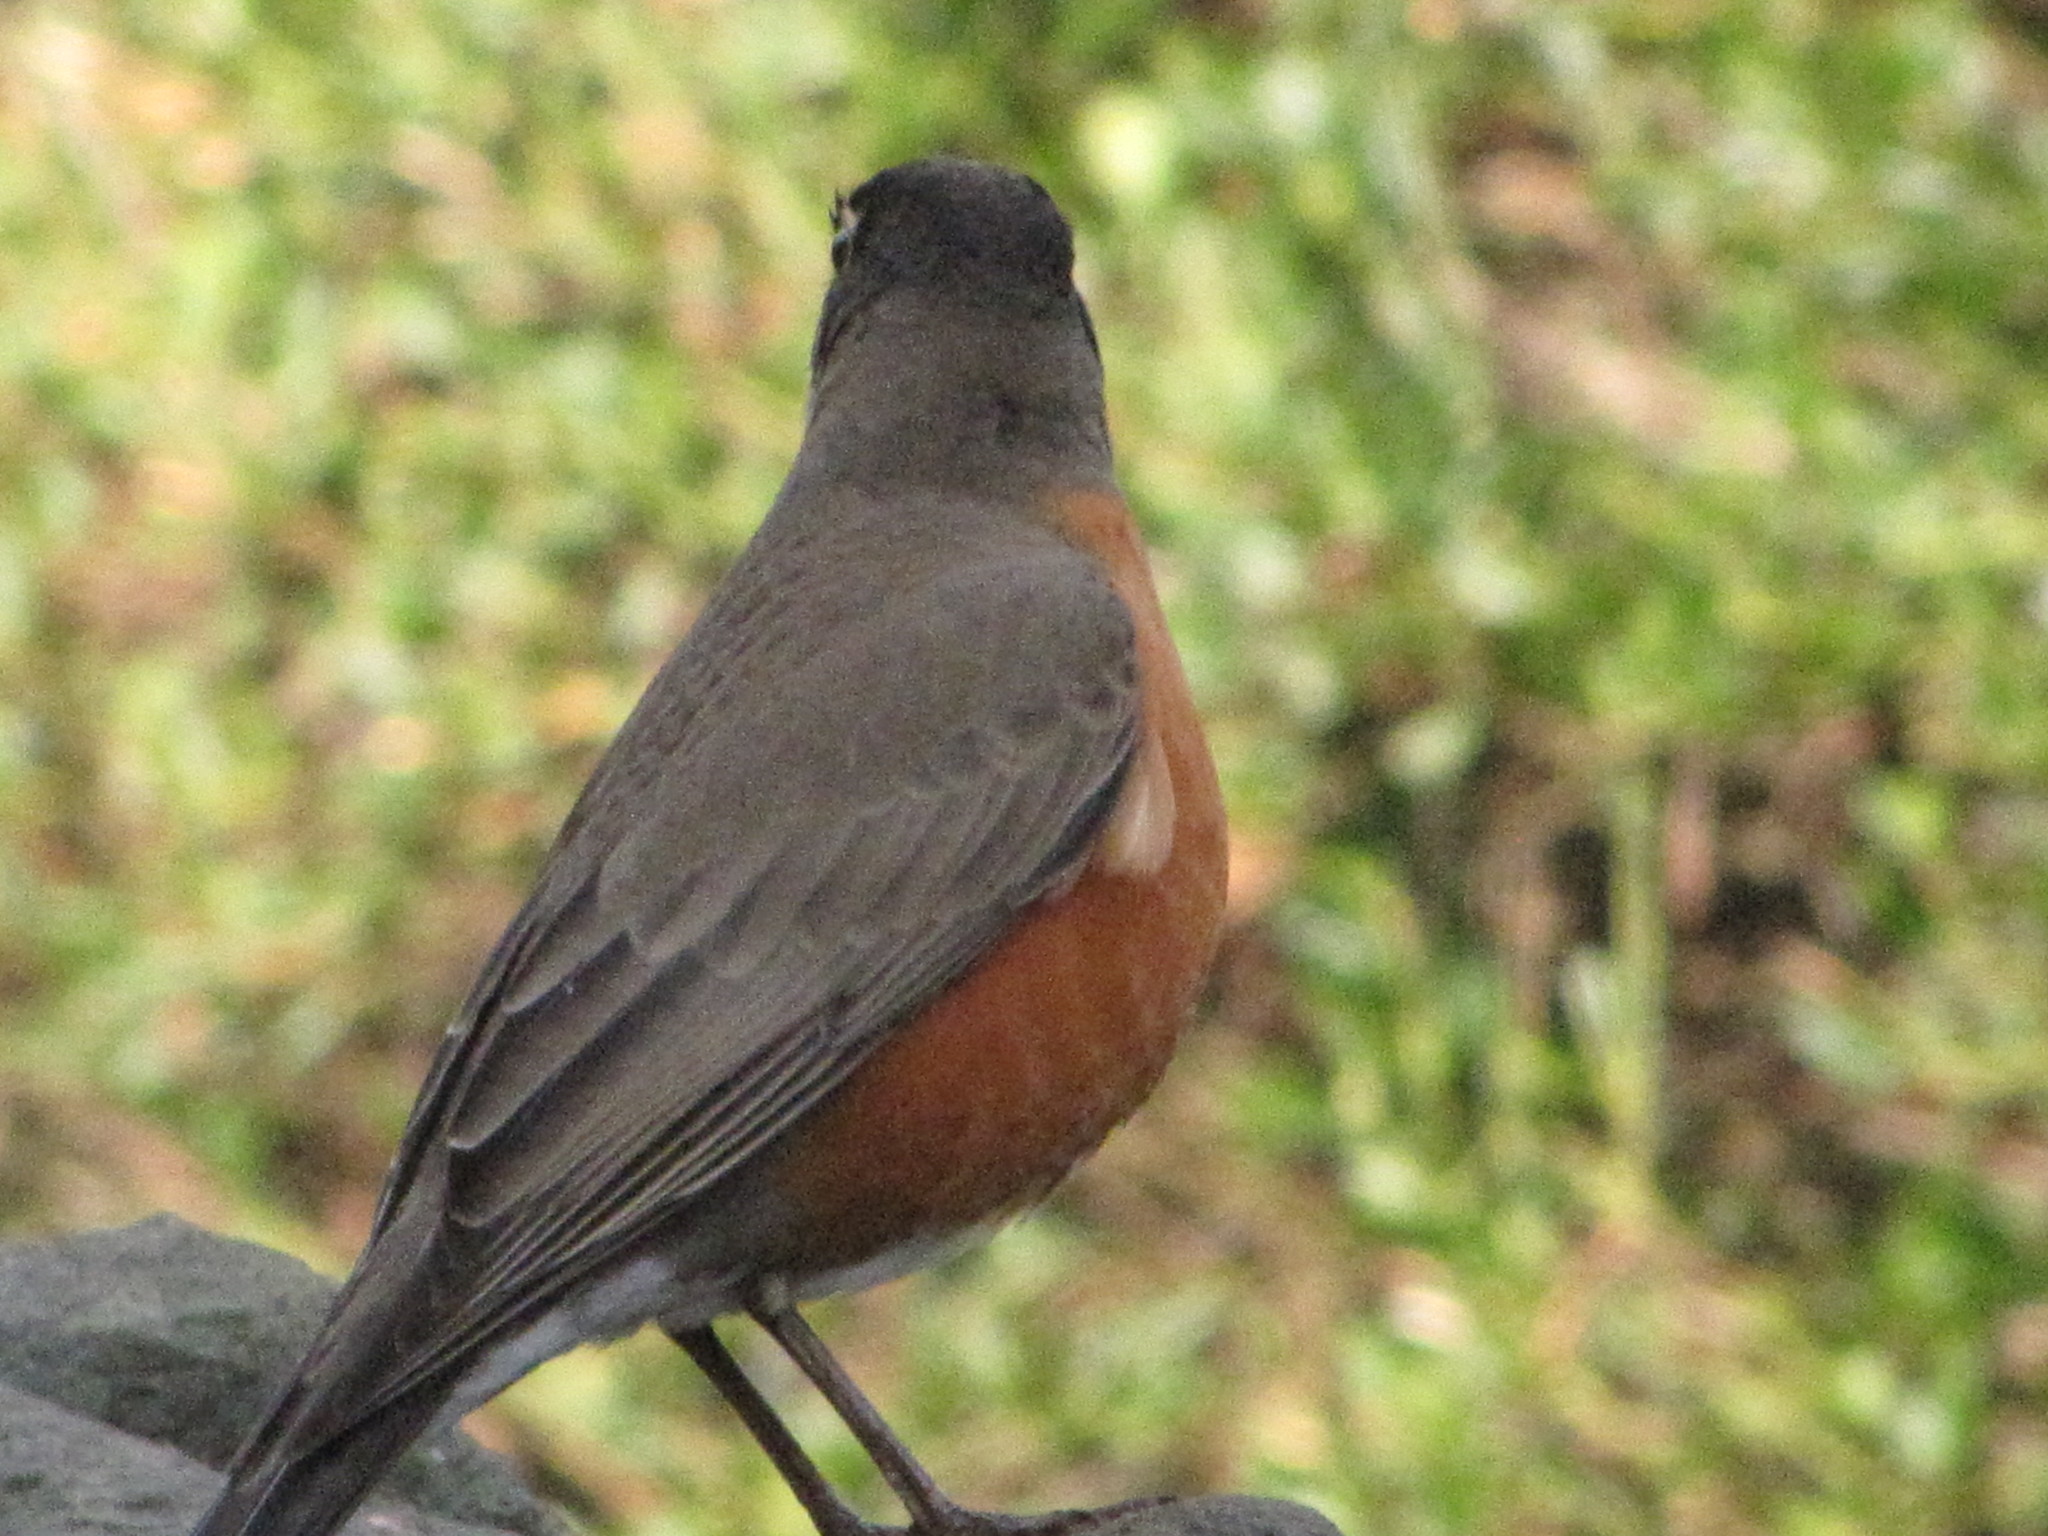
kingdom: Animalia
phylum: Chordata
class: Aves
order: Passeriformes
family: Turdidae
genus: Turdus
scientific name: Turdus migratorius
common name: American robin
